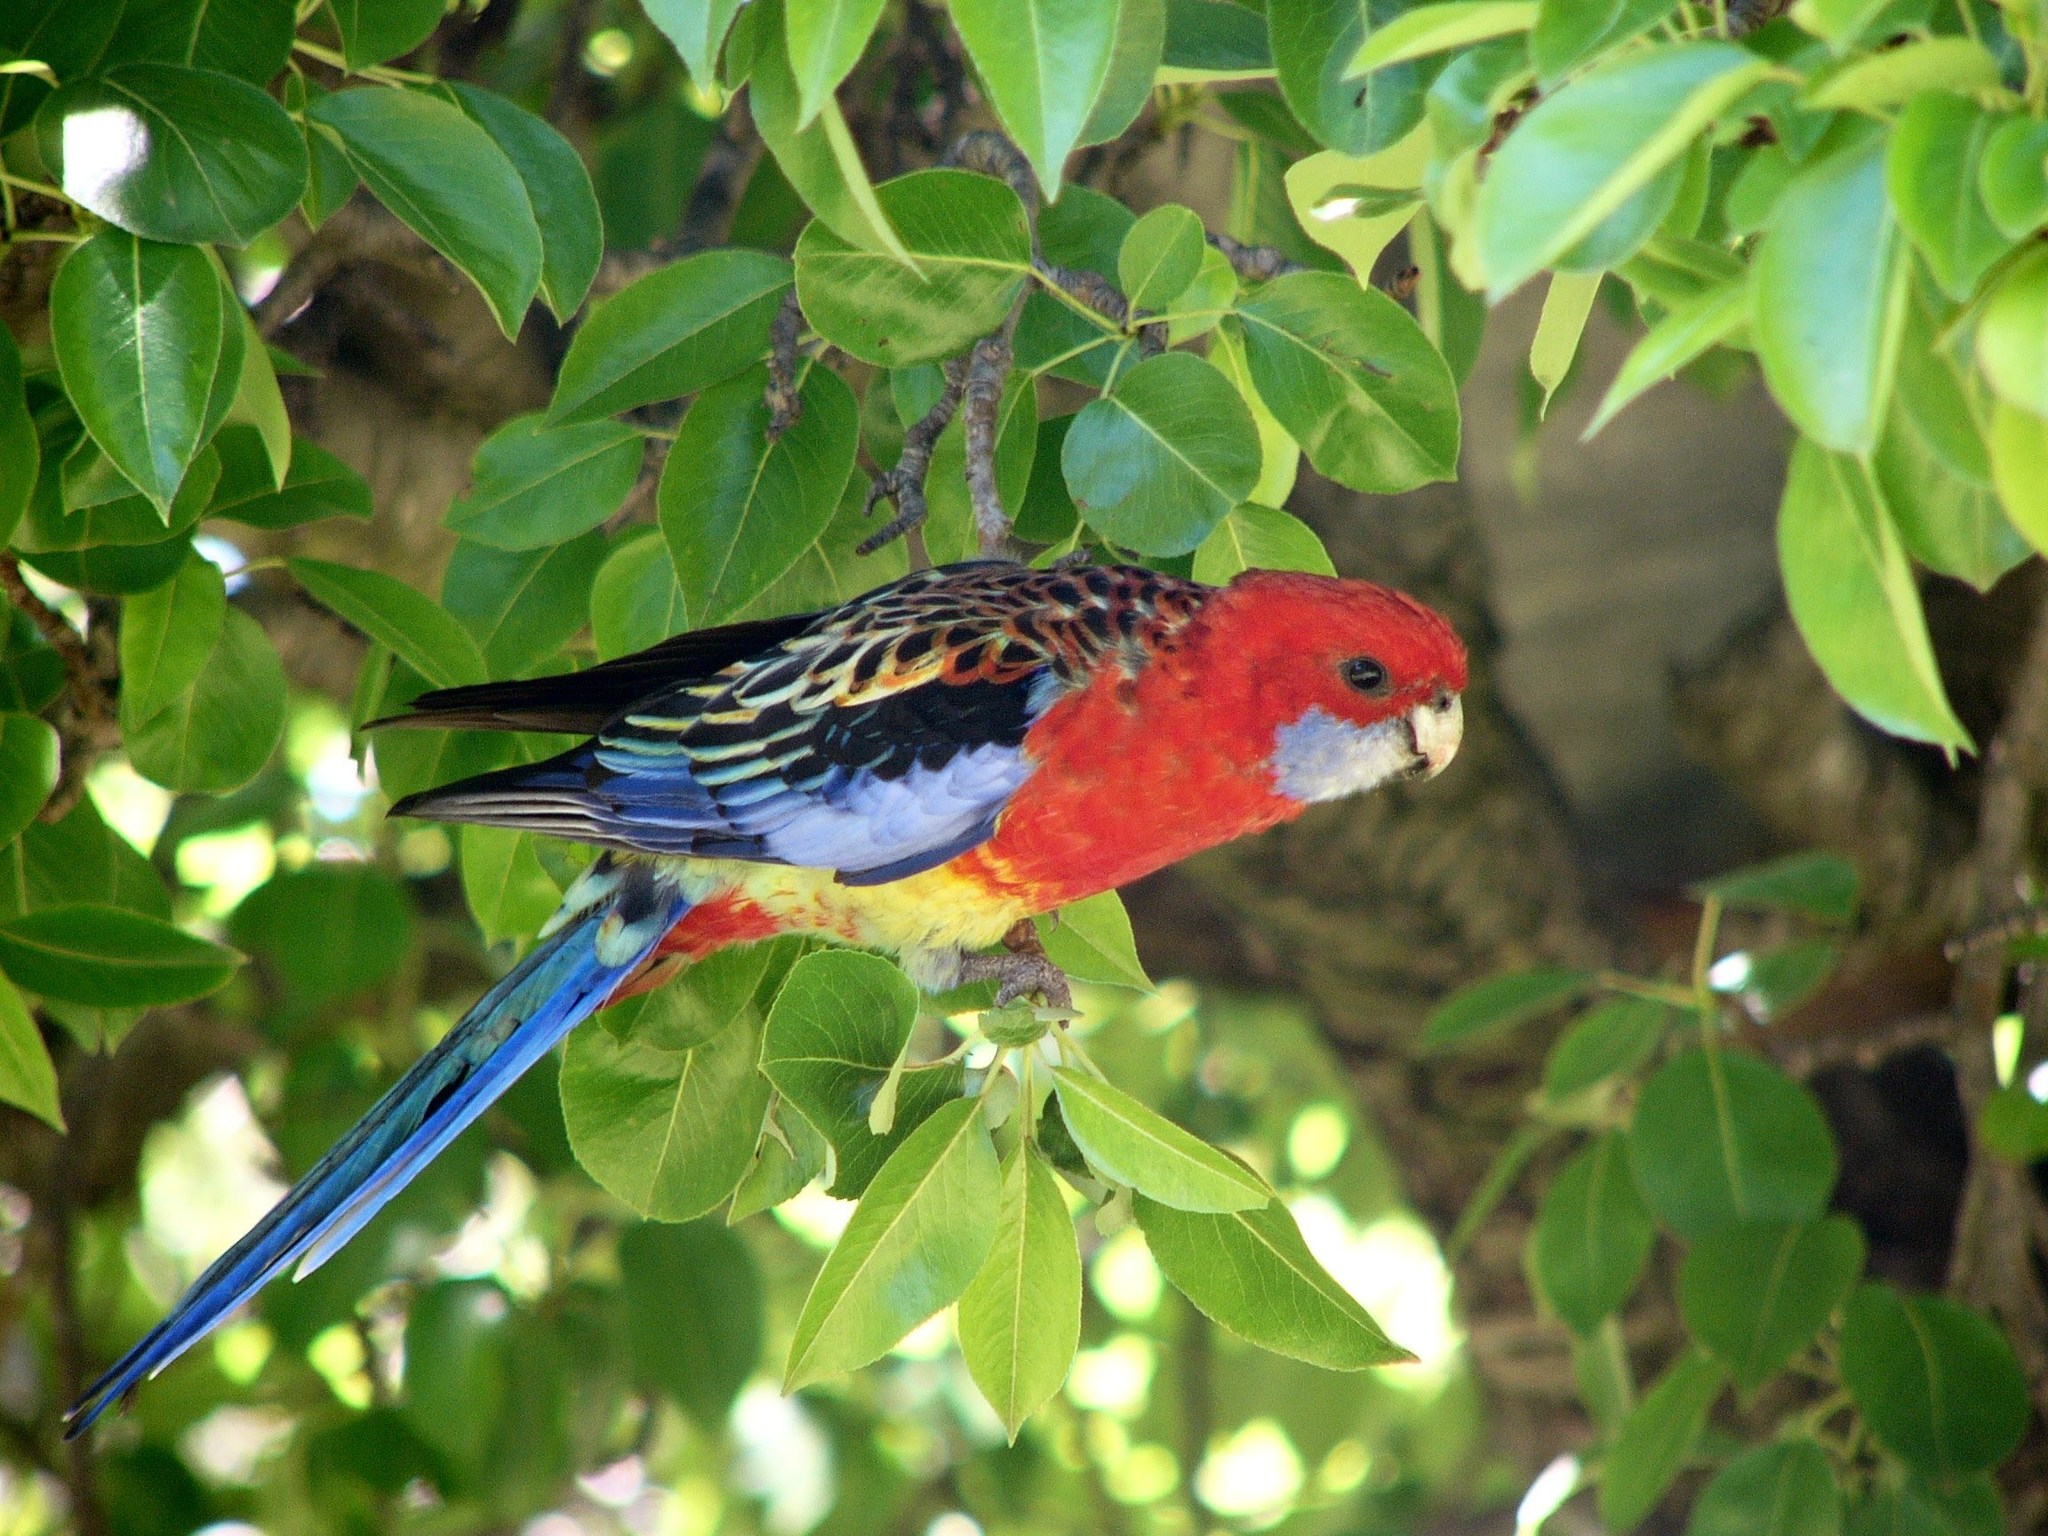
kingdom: Animalia
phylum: Chordata
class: Aves
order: Psittaciformes
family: Psittacidae
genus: Platycercus
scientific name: Platycercus
